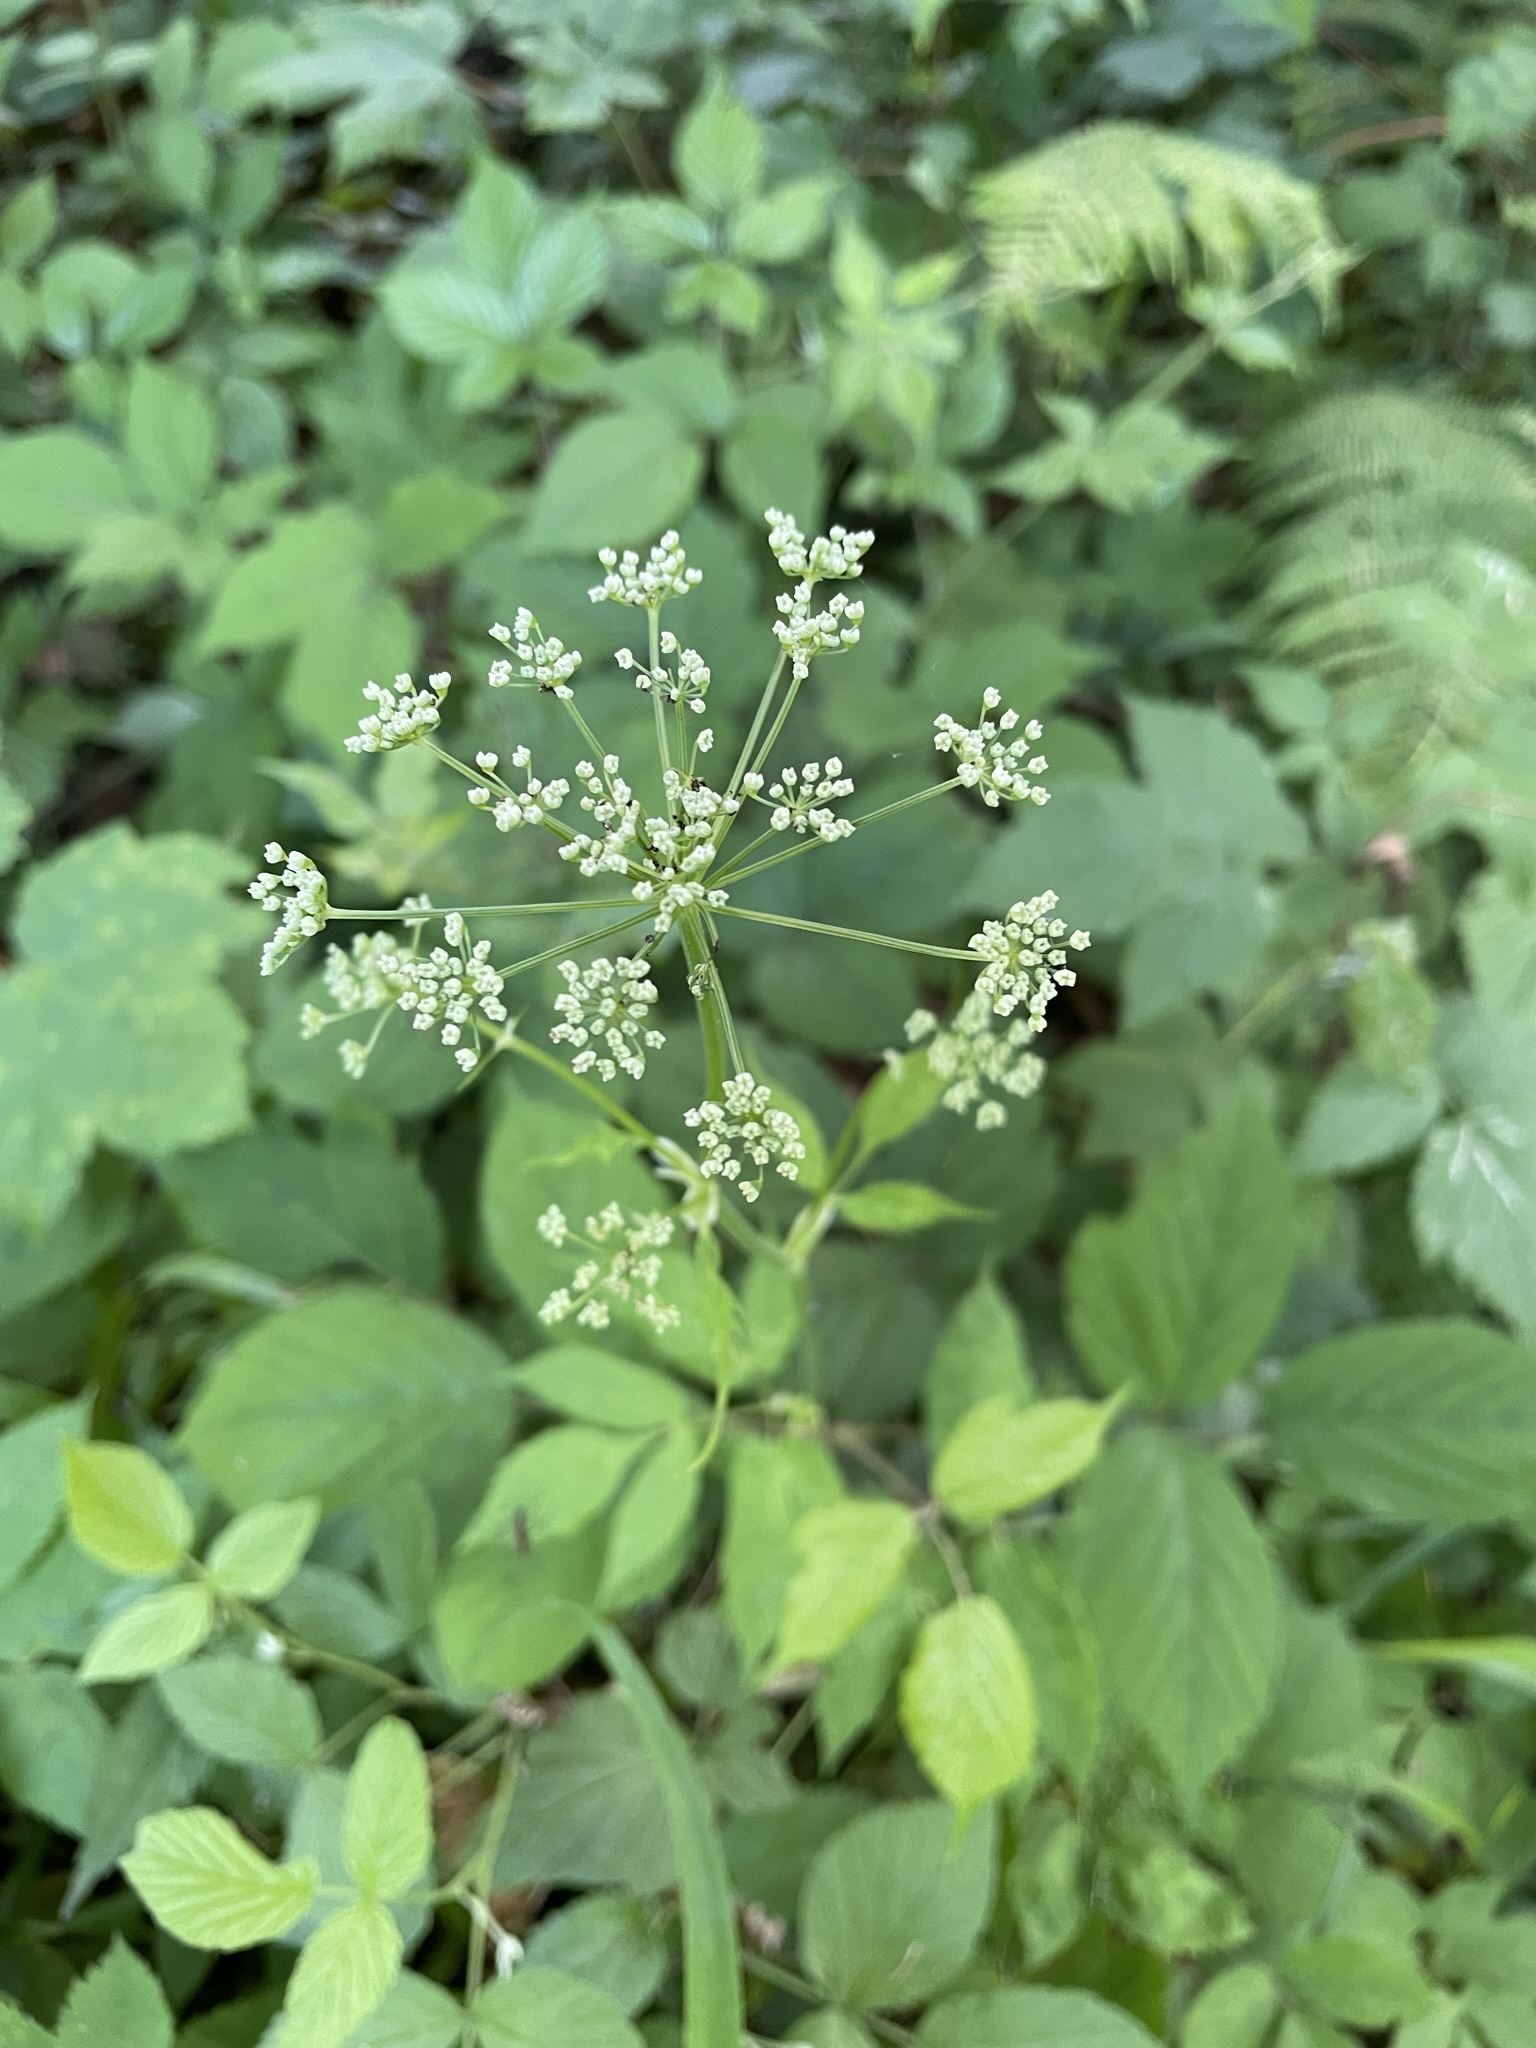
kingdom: Plantae
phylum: Tracheophyta
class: Magnoliopsida
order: Apiales
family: Apiaceae
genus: Aegopodium
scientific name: Aegopodium podagraria
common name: Ground-elder
